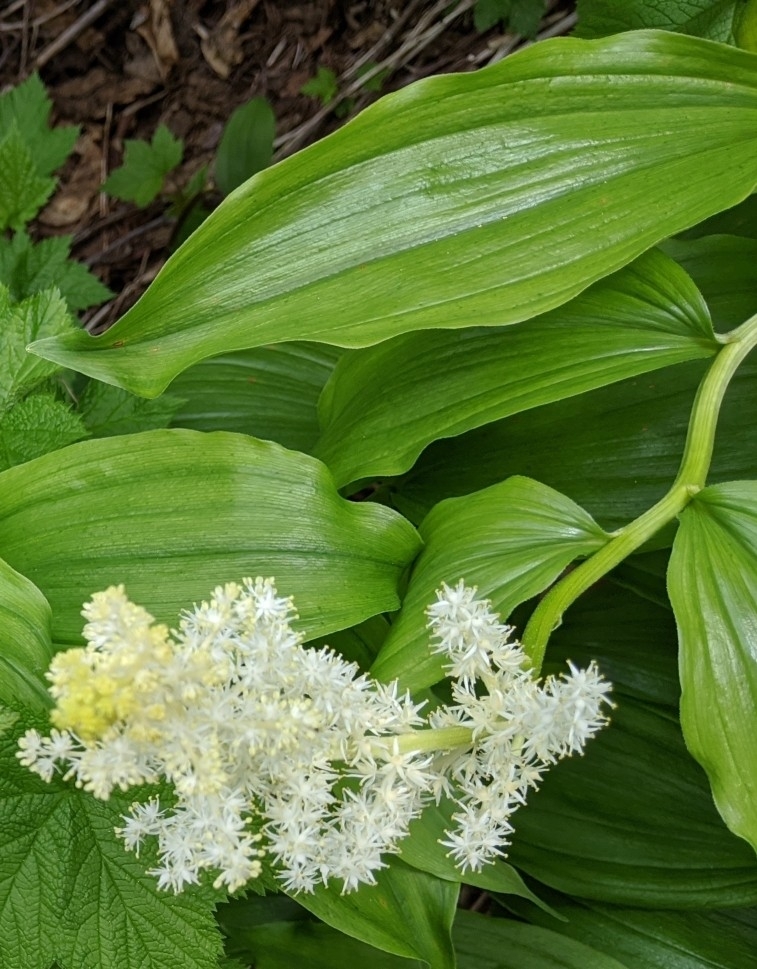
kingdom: Plantae
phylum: Tracheophyta
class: Liliopsida
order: Asparagales
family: Asparagaceae
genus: Maianthemum
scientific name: Maianthemum racemosum
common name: False spikenard
